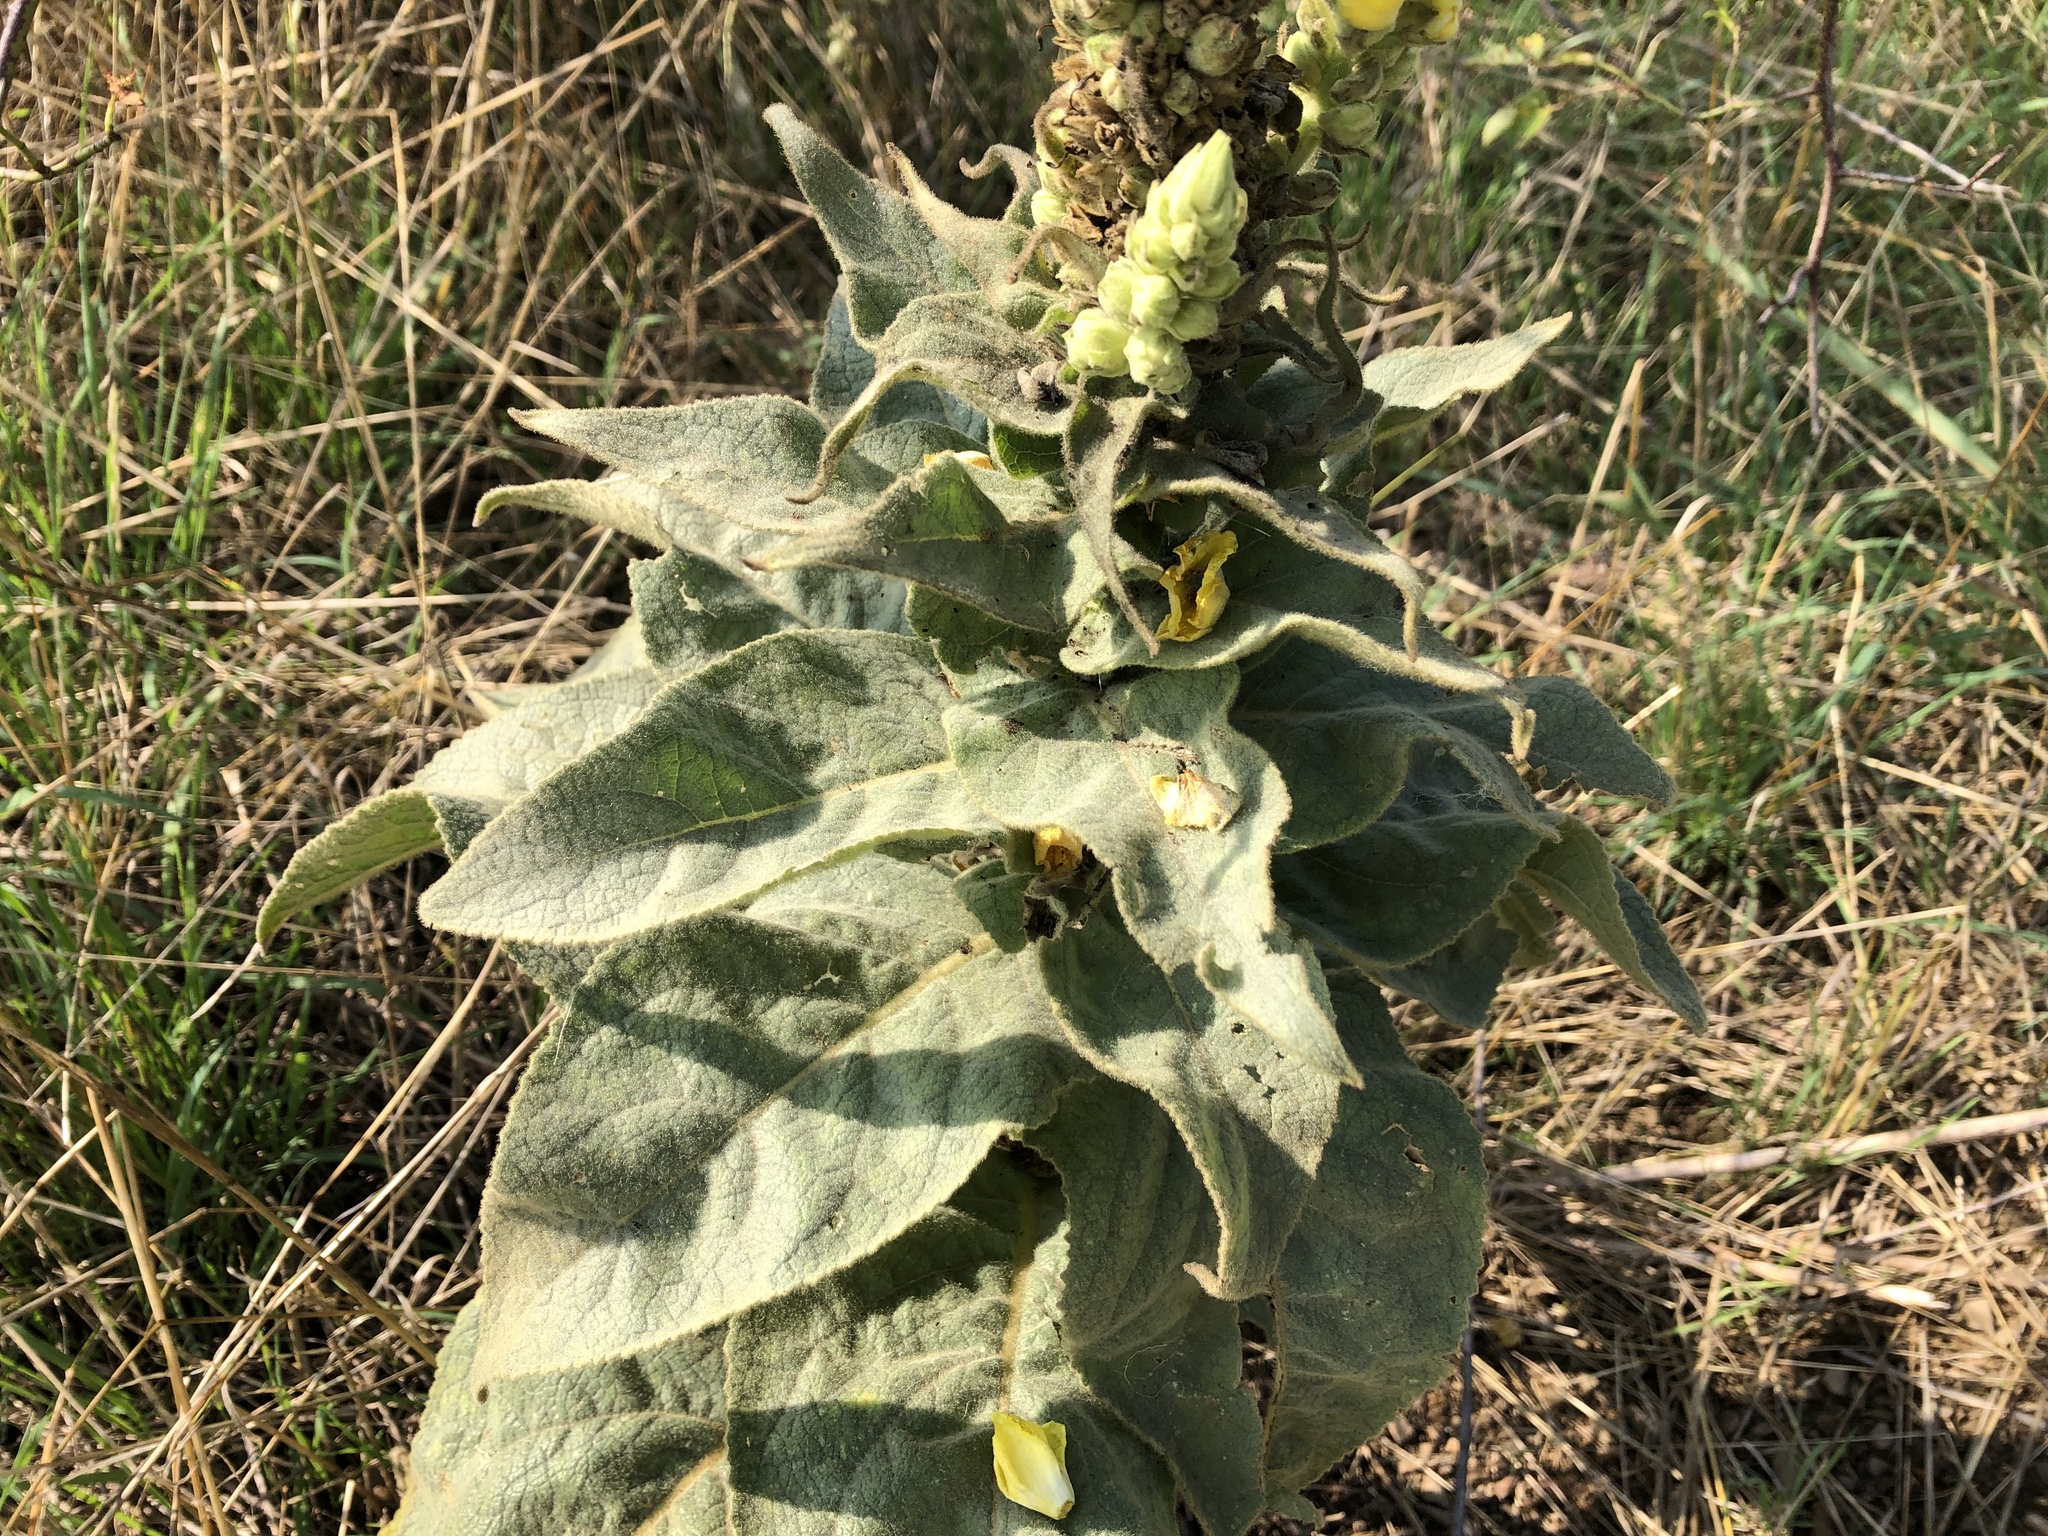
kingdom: Plantae
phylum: Tracheophyta
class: Magnoliopsida
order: Lamiales
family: Scrophulariaceae
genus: Verbascum
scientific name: Verbascum densiflorum
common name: Dense-flowered mullein
